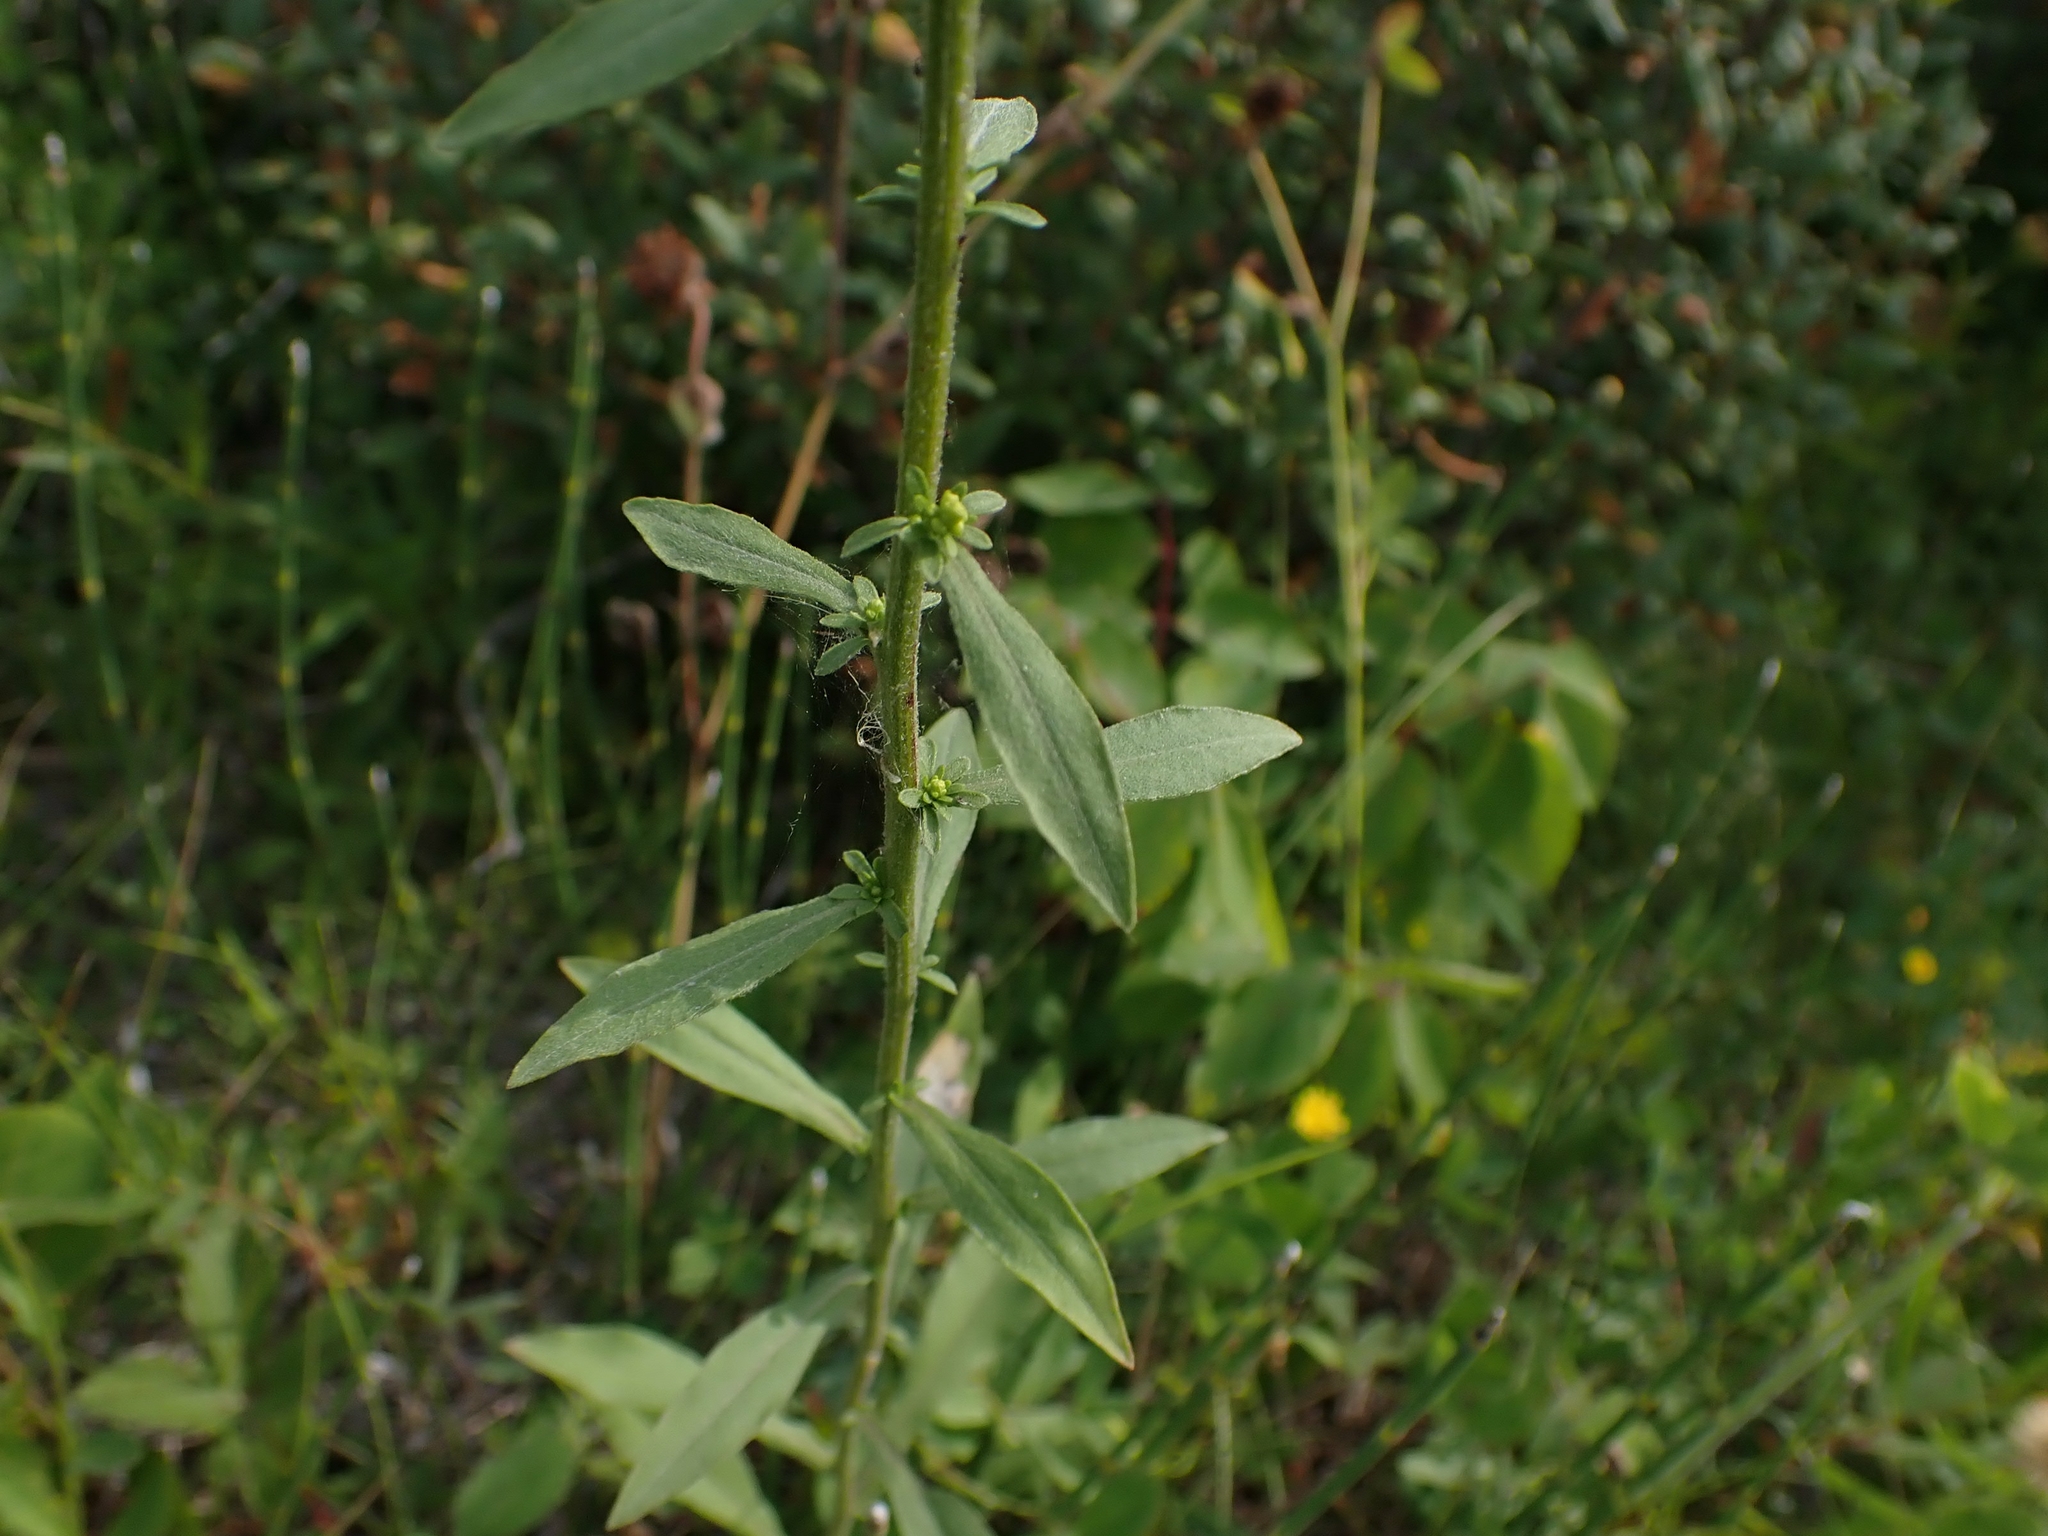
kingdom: Plantae
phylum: Tracheophyta
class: Magnoliopsida
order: Asterales
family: Asteraceae
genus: Solidago
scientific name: Solidago nemoralis
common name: Grey goldenrod
